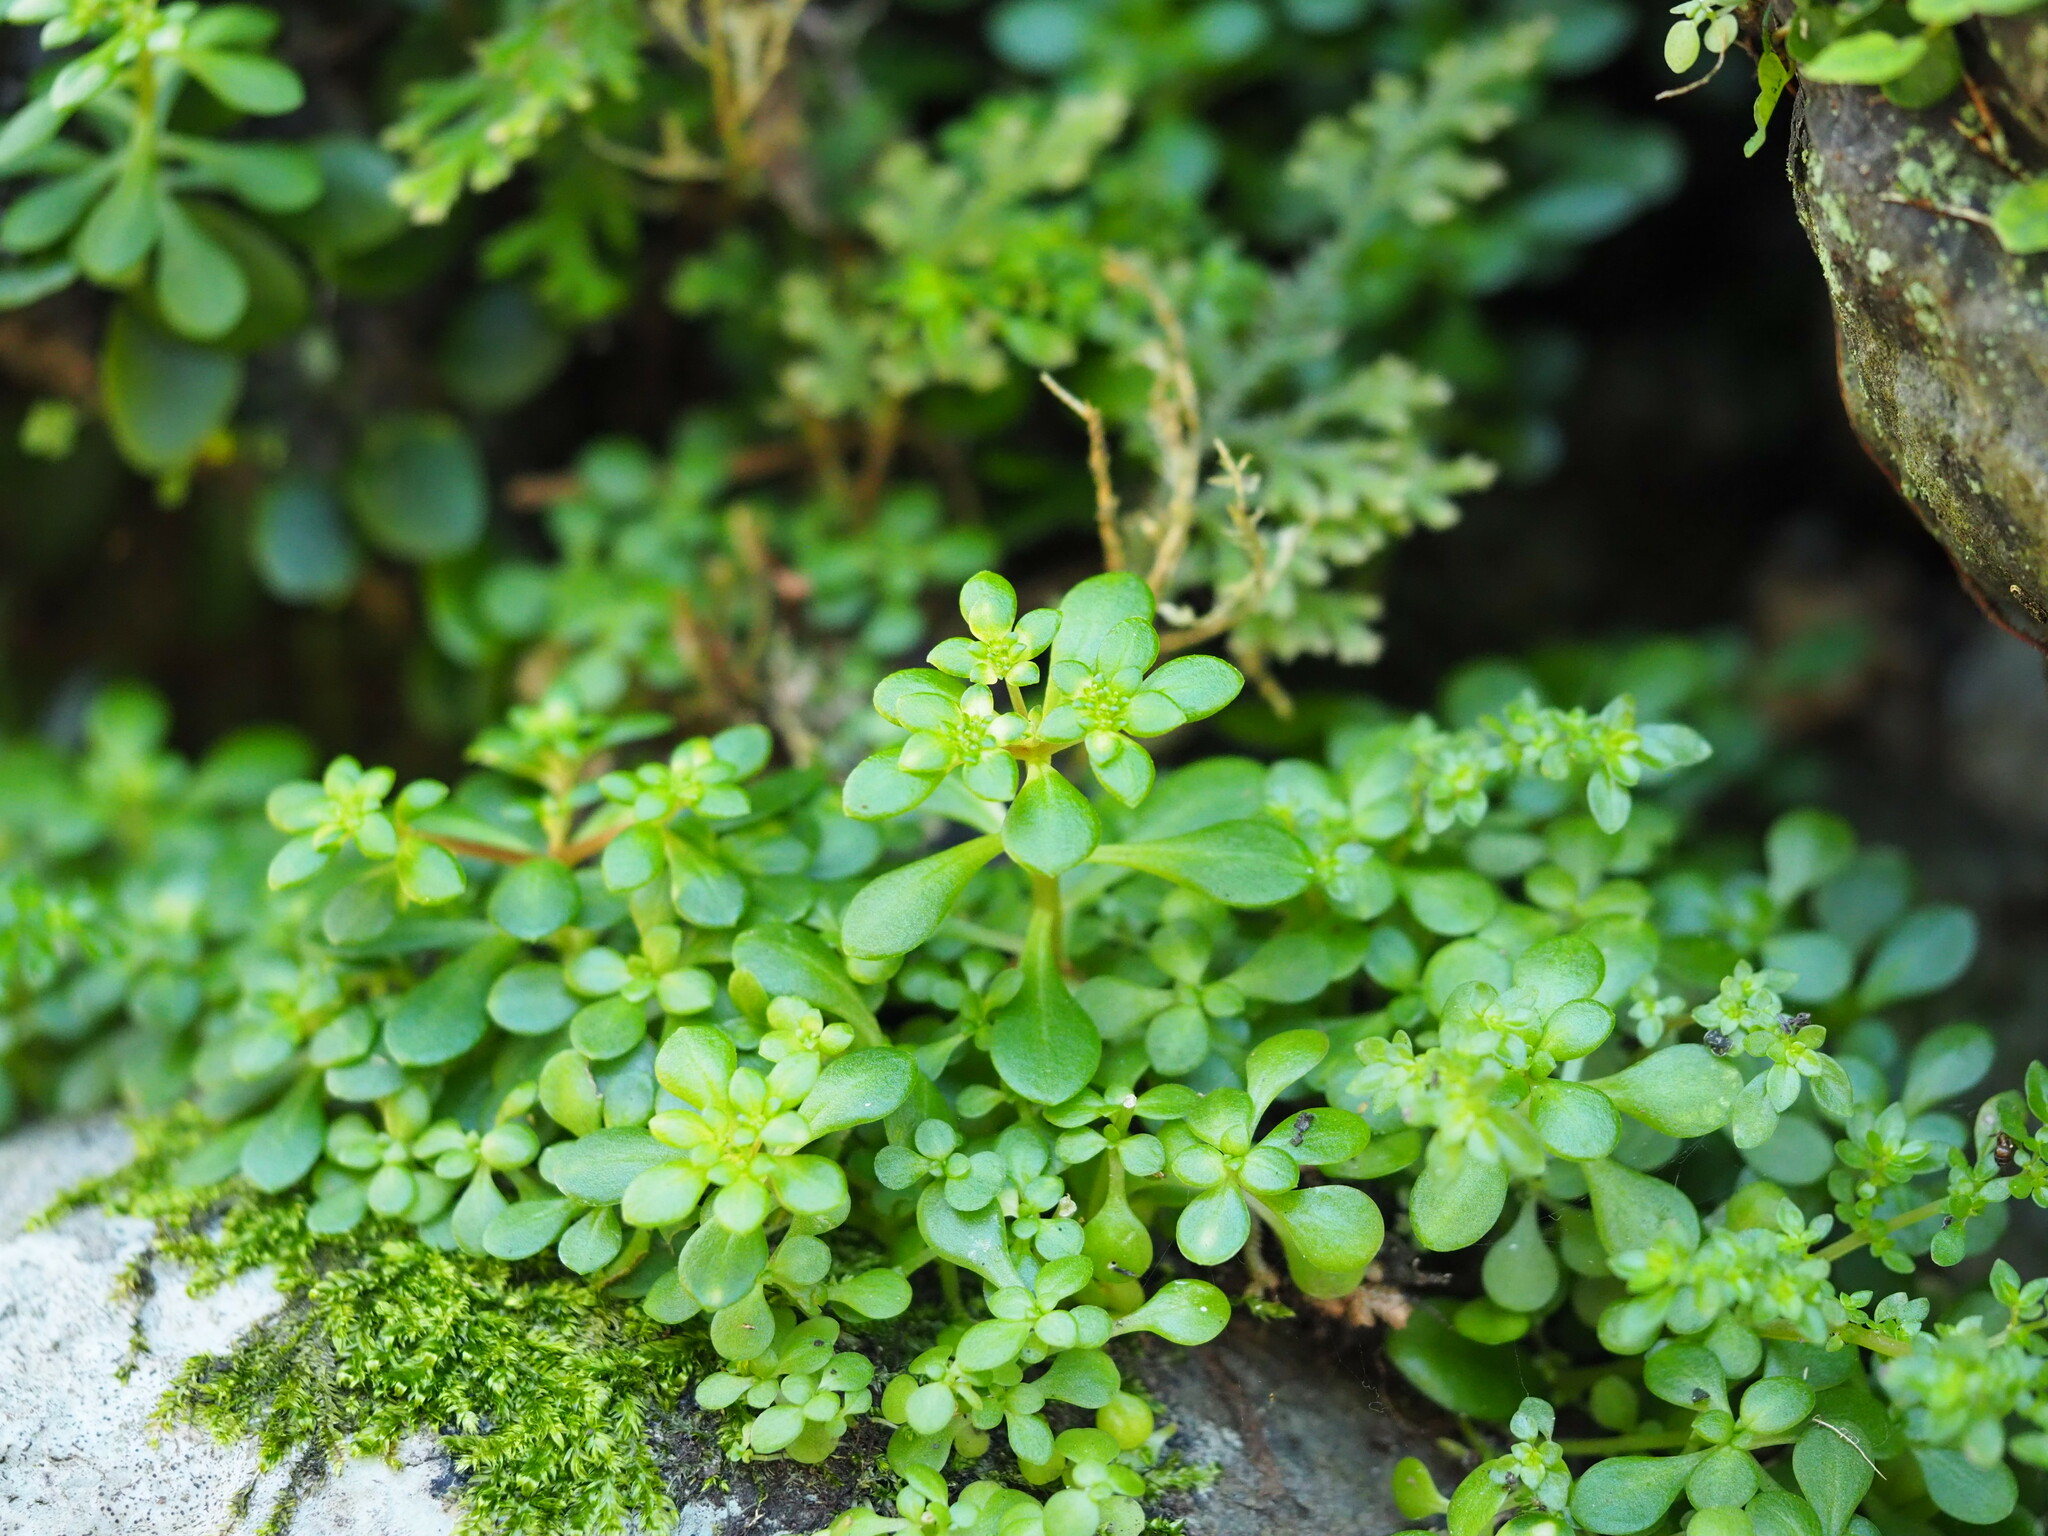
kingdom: Plantae
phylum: Tracheophyta
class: Magnoliopsida
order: Saxifragales
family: Crassulaceae
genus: Sedum
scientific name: Sedum actinocarpum
